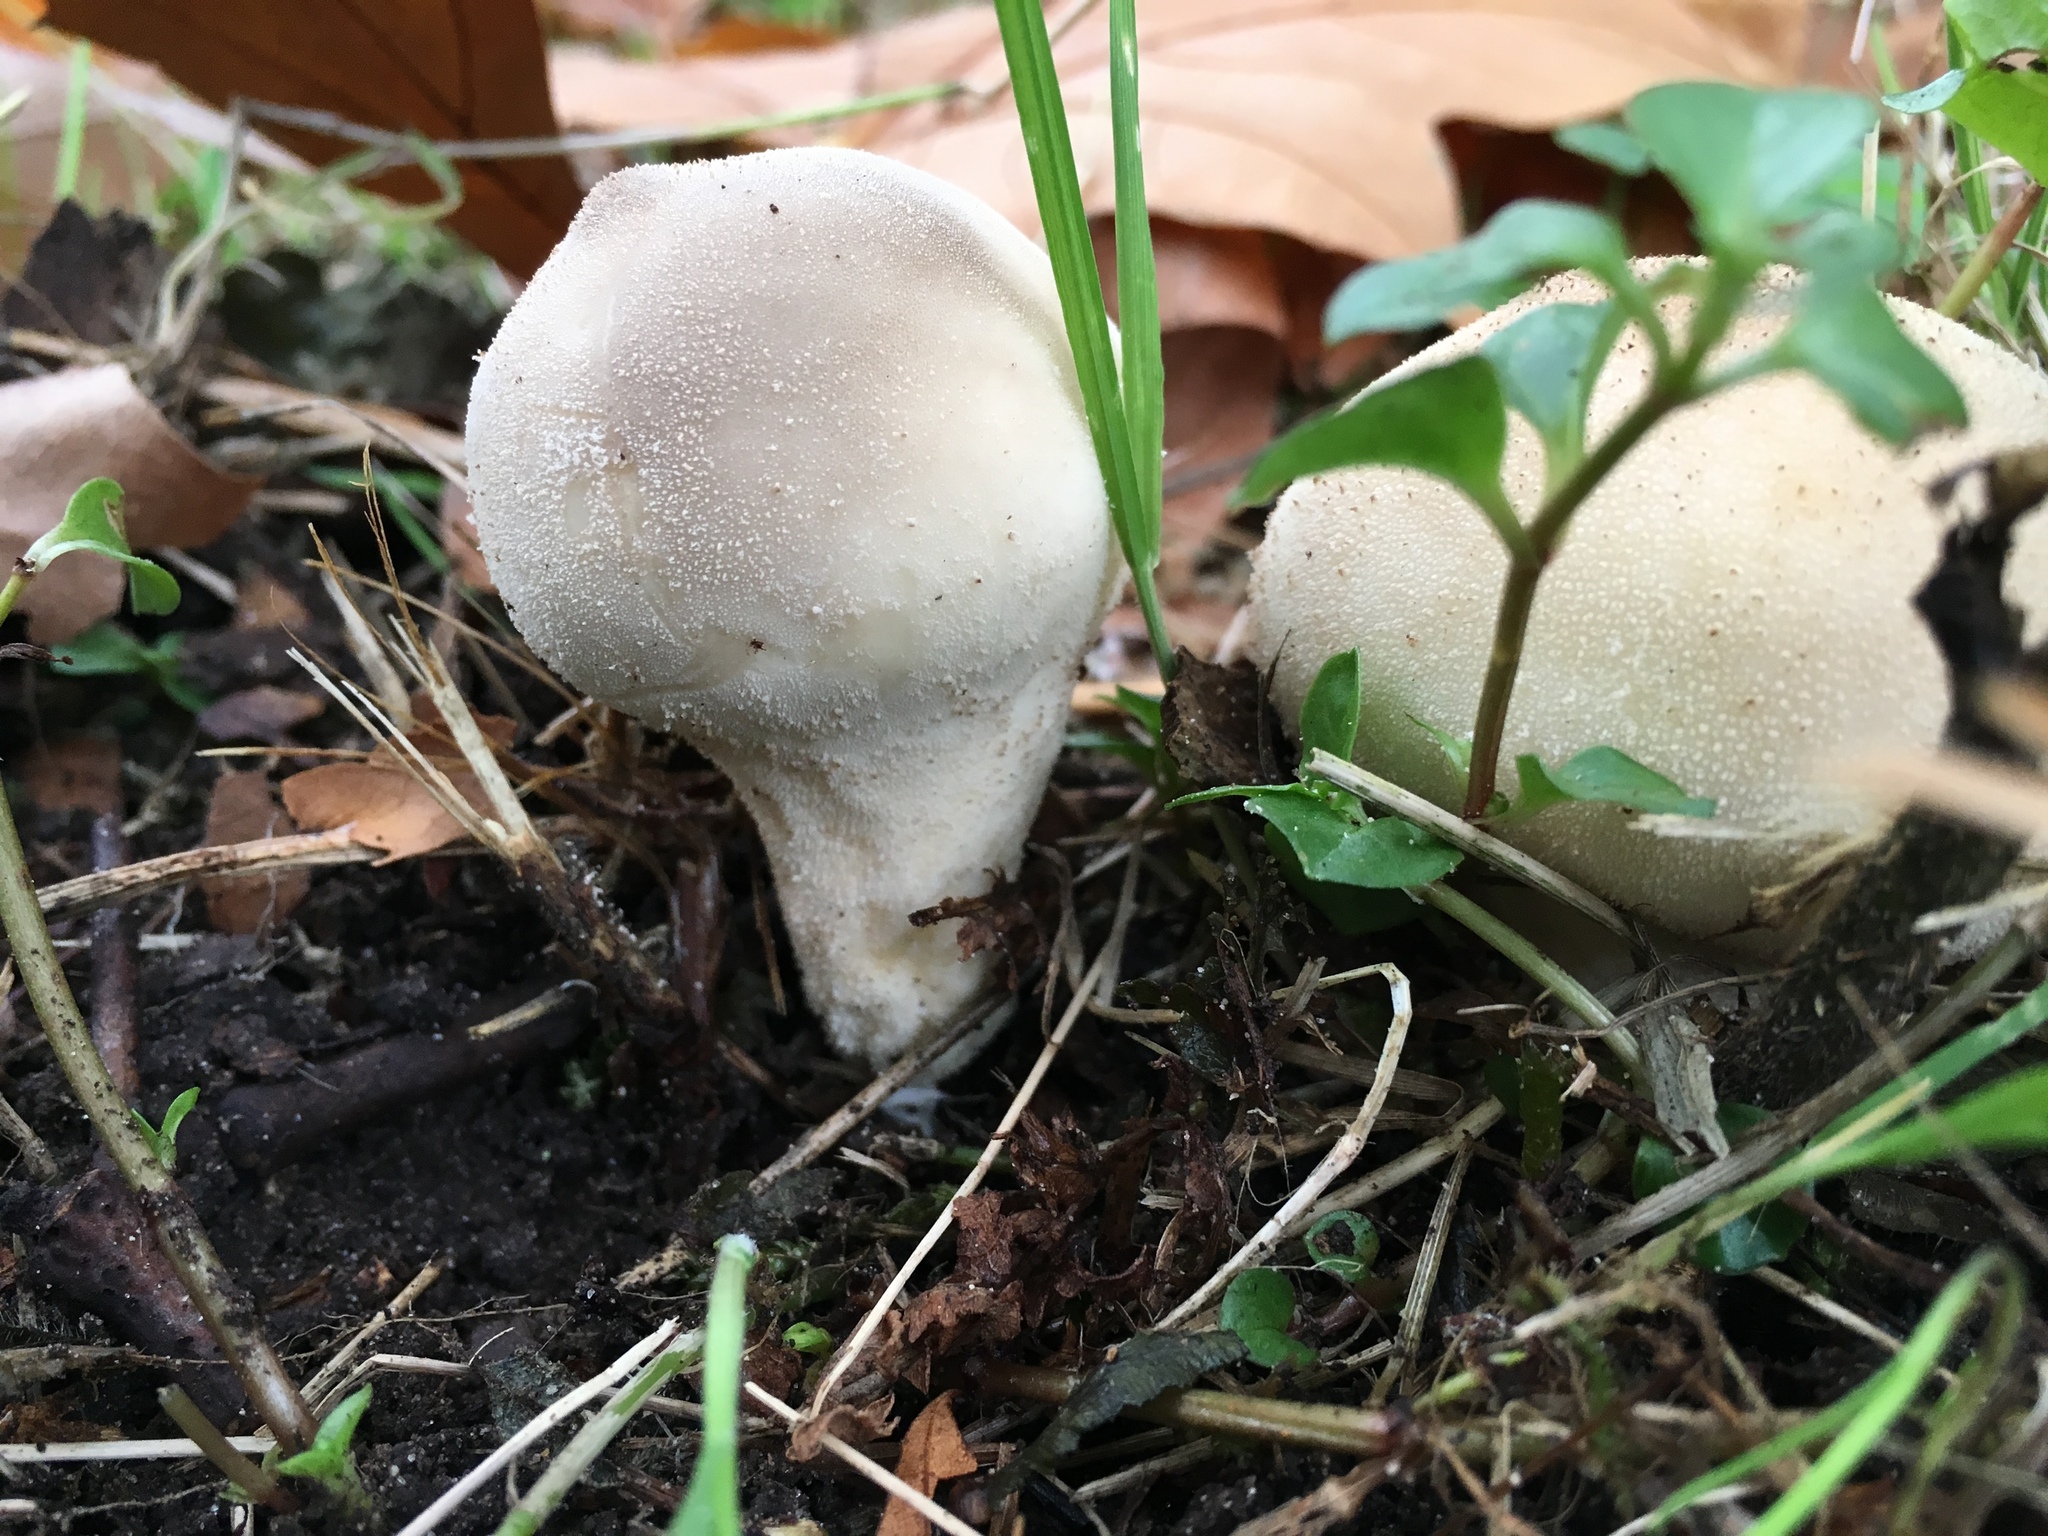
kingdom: Fungi
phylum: Basidiomycota
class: Agaricomycetes
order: Agaricales
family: Lycoperdaceae
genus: Lycoperdon
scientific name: Lycoperdon perlatum
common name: Common puffball
